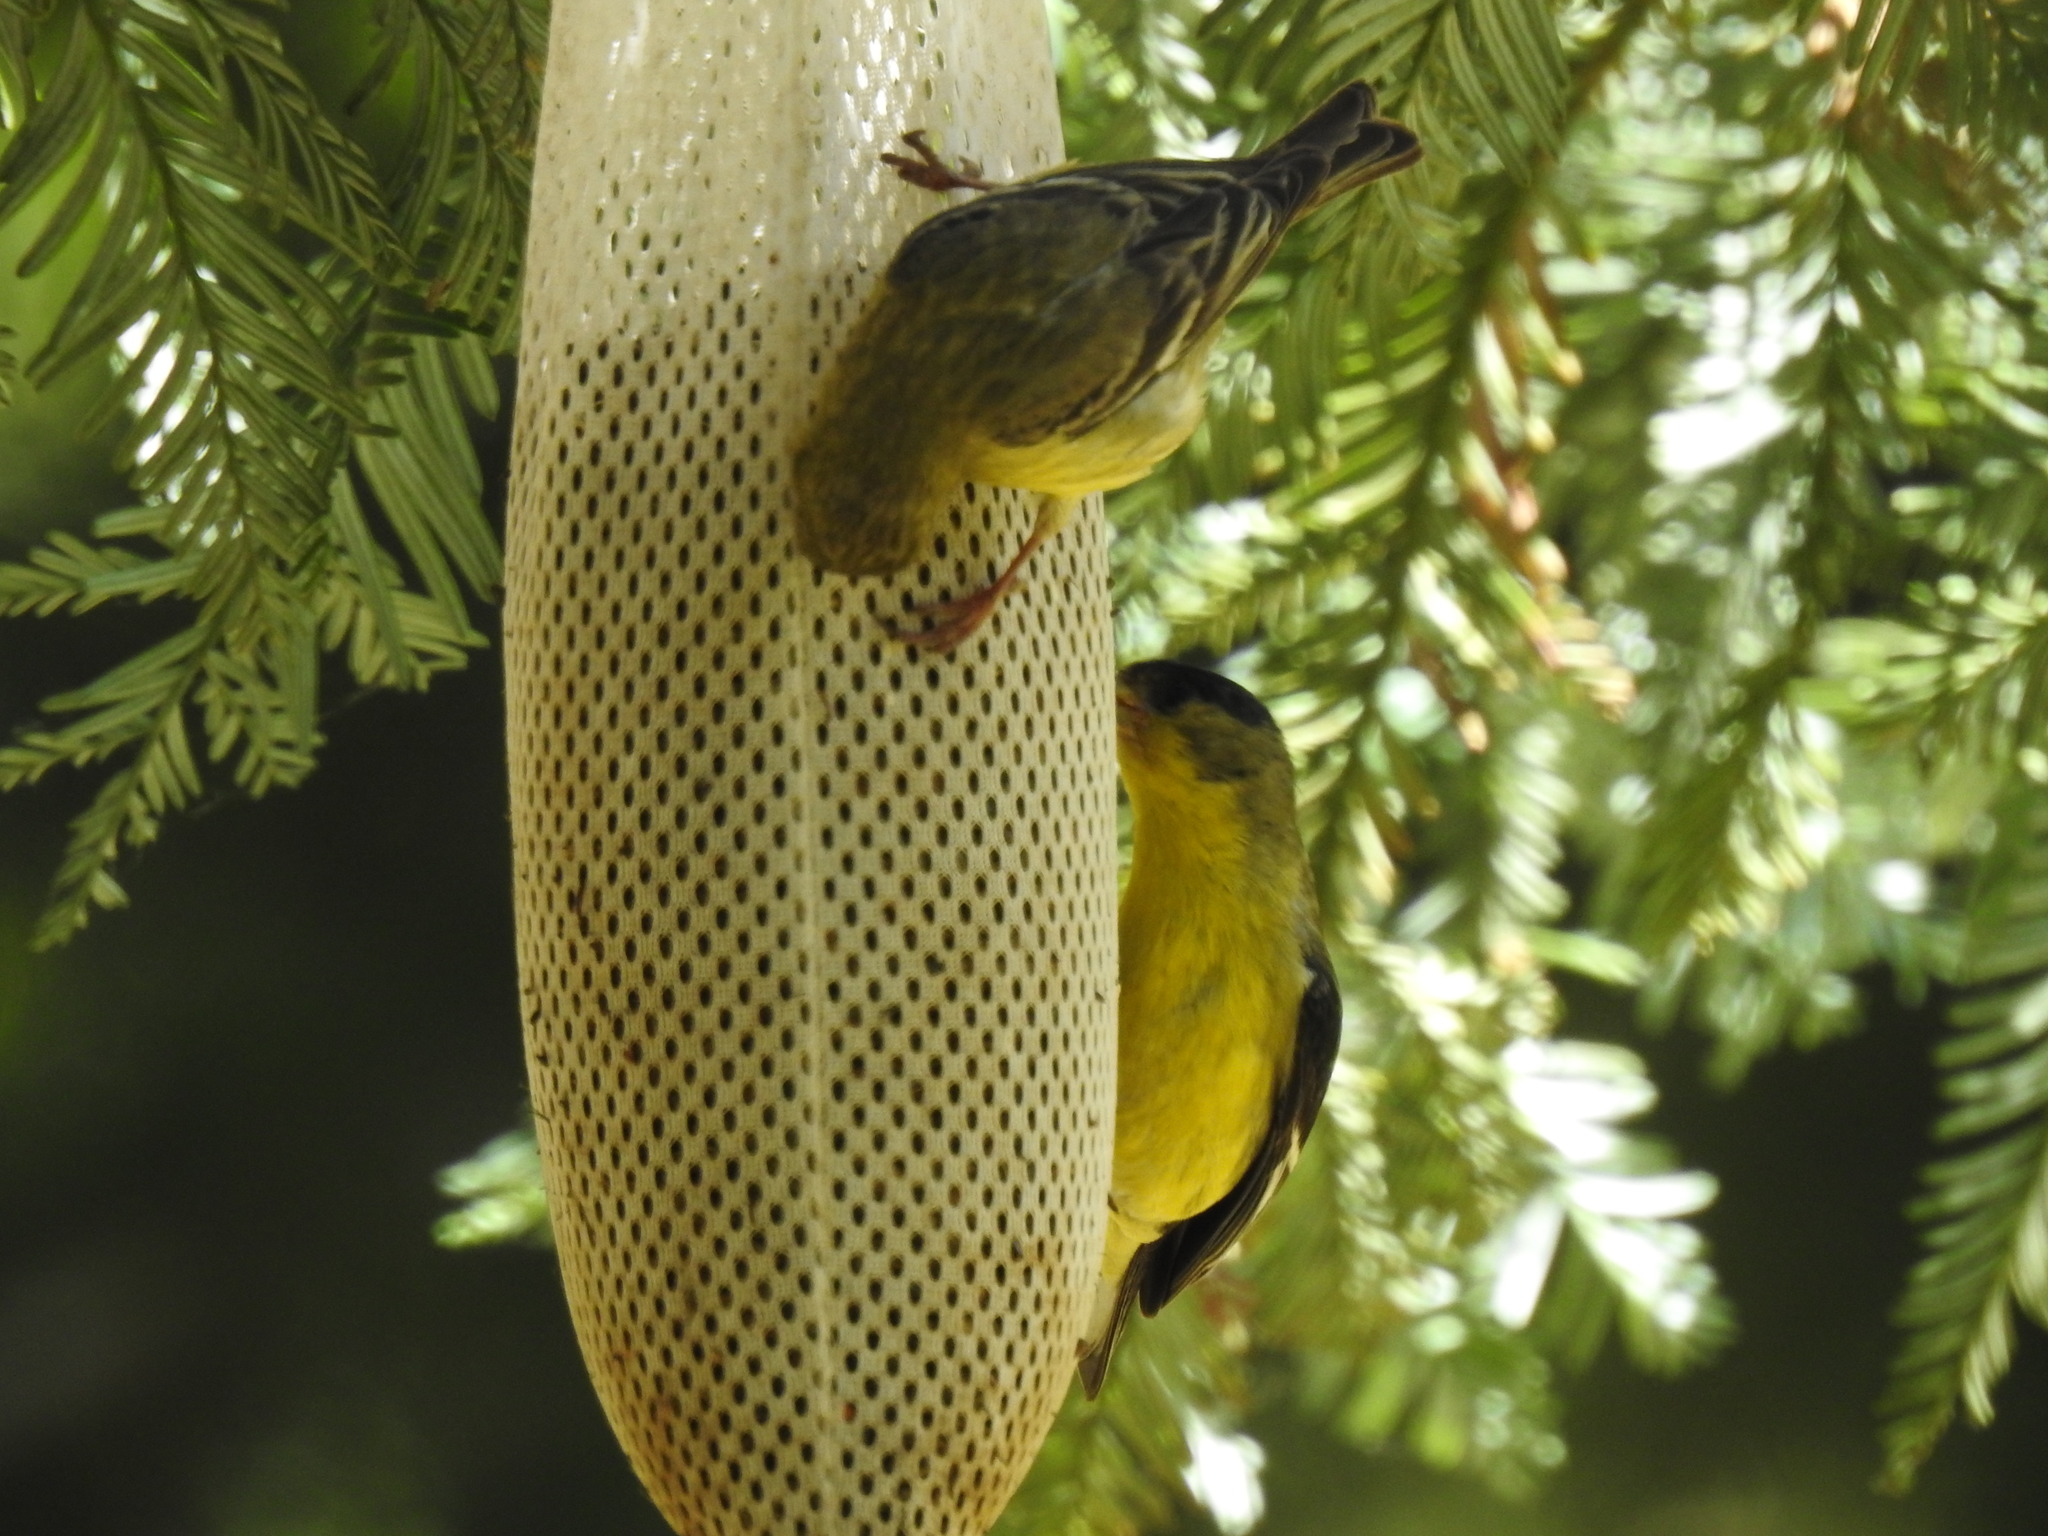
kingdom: Animalia
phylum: Chordata
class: Aves
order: Passeriformes
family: Fringillidae
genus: Spinus
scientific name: Spinus psaltria
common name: Lesser goldfinch
